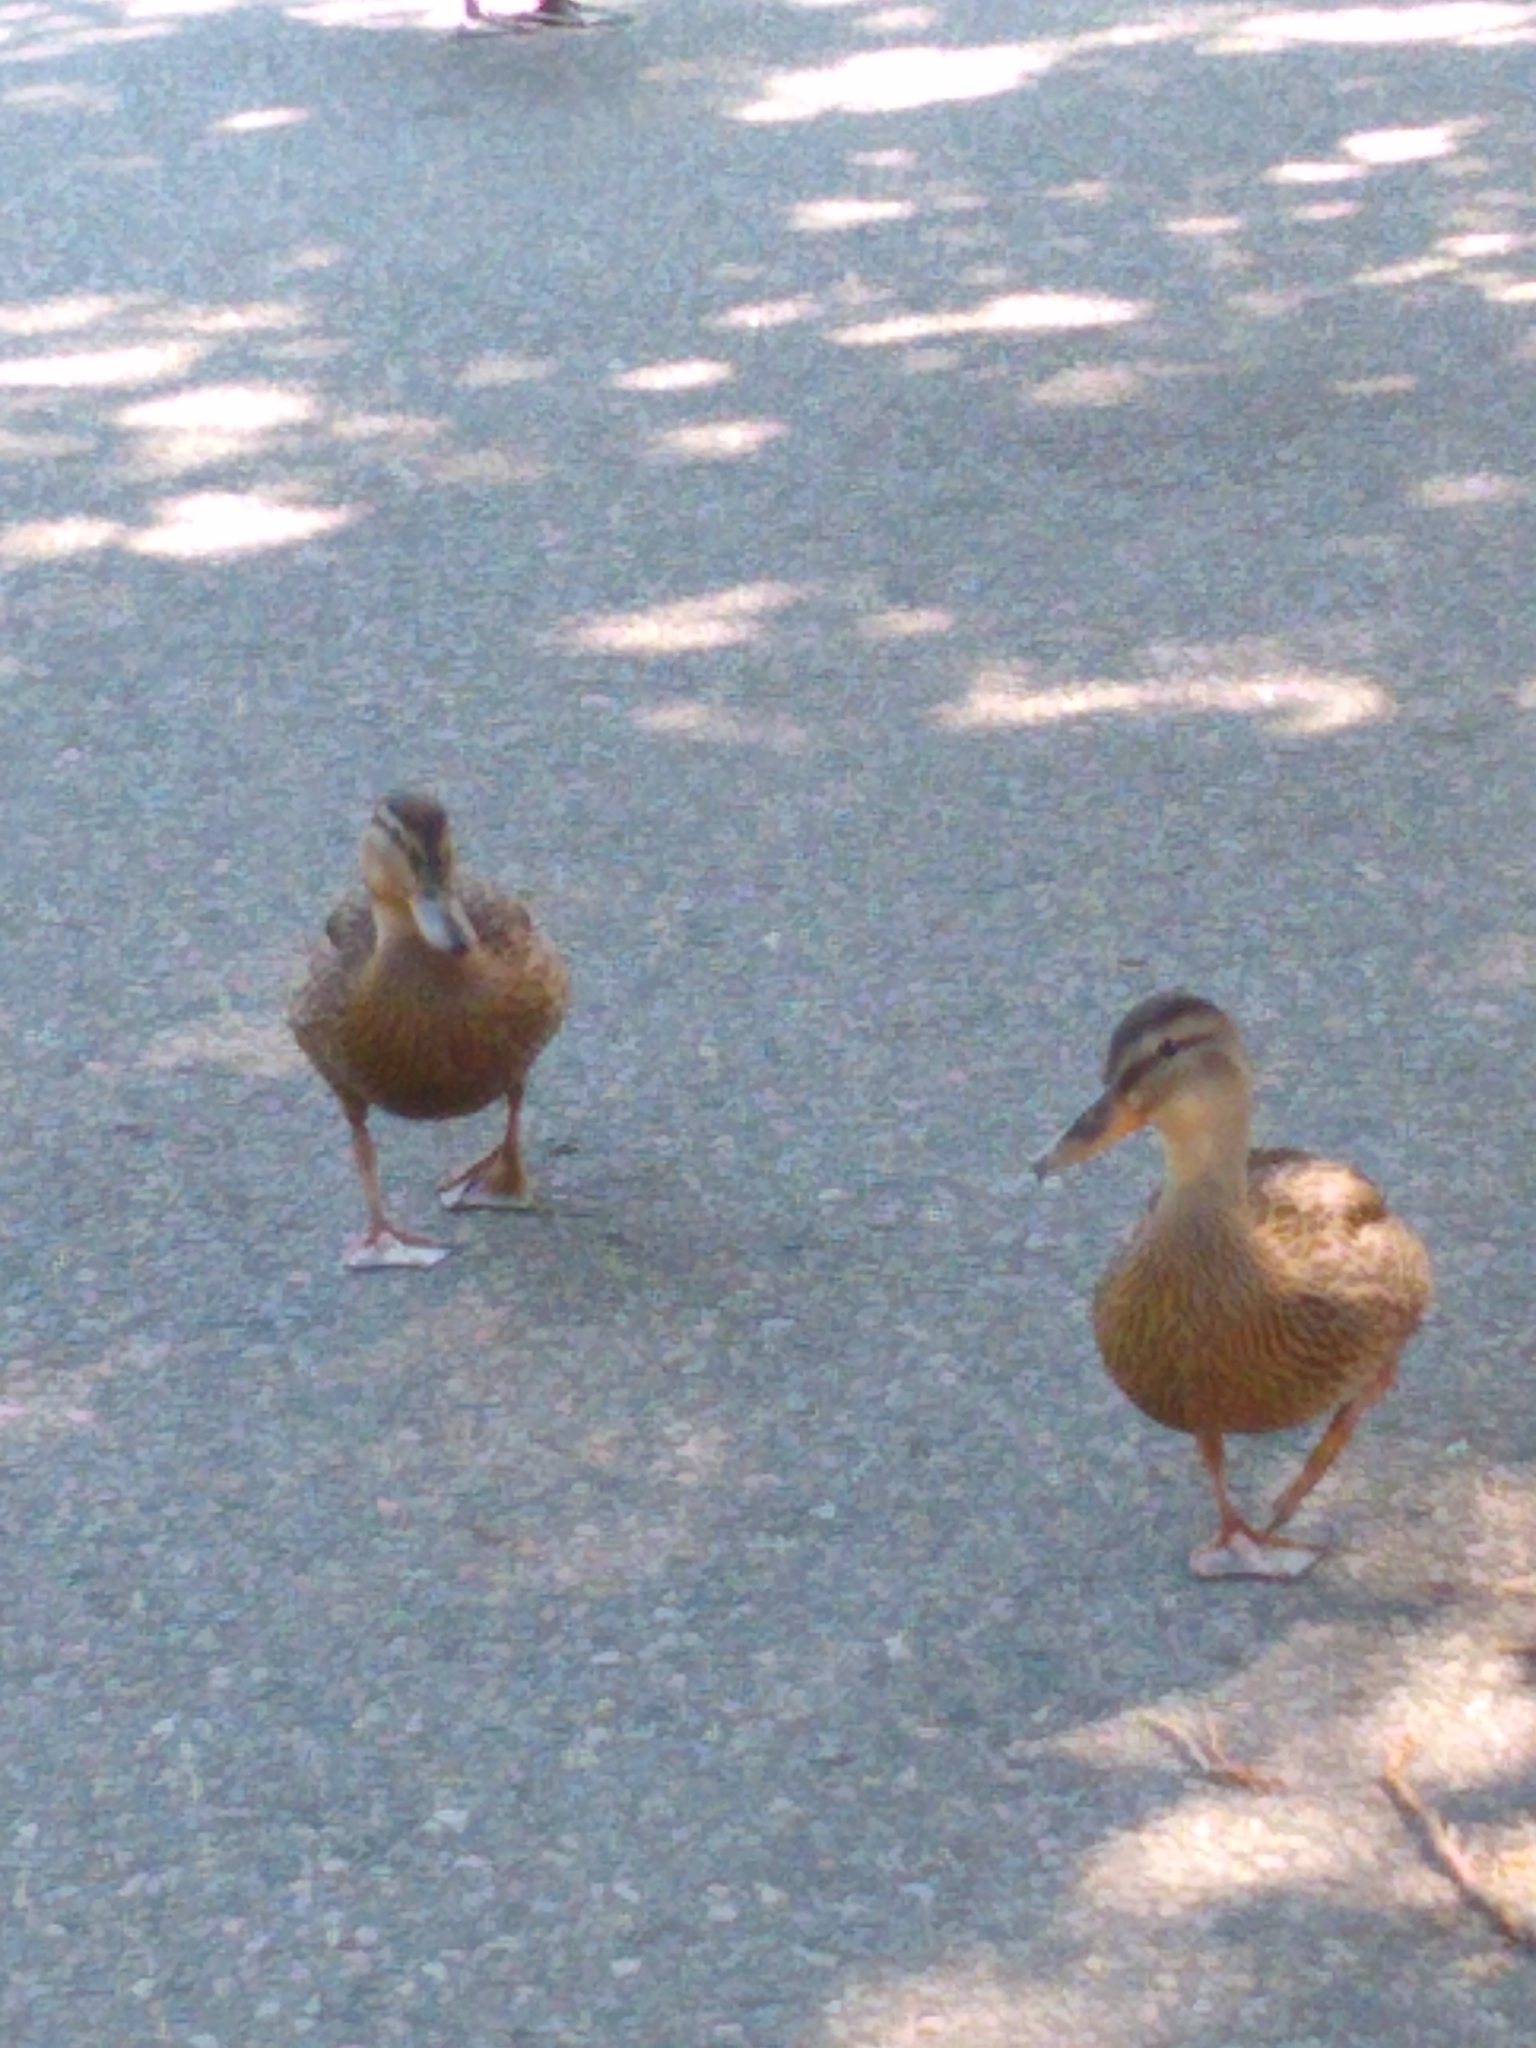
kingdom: Animalia
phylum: Chordata
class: Aves
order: Anseriformes
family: Anatidae
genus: Anas
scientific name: Anas platyrhynchos
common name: Mallard
